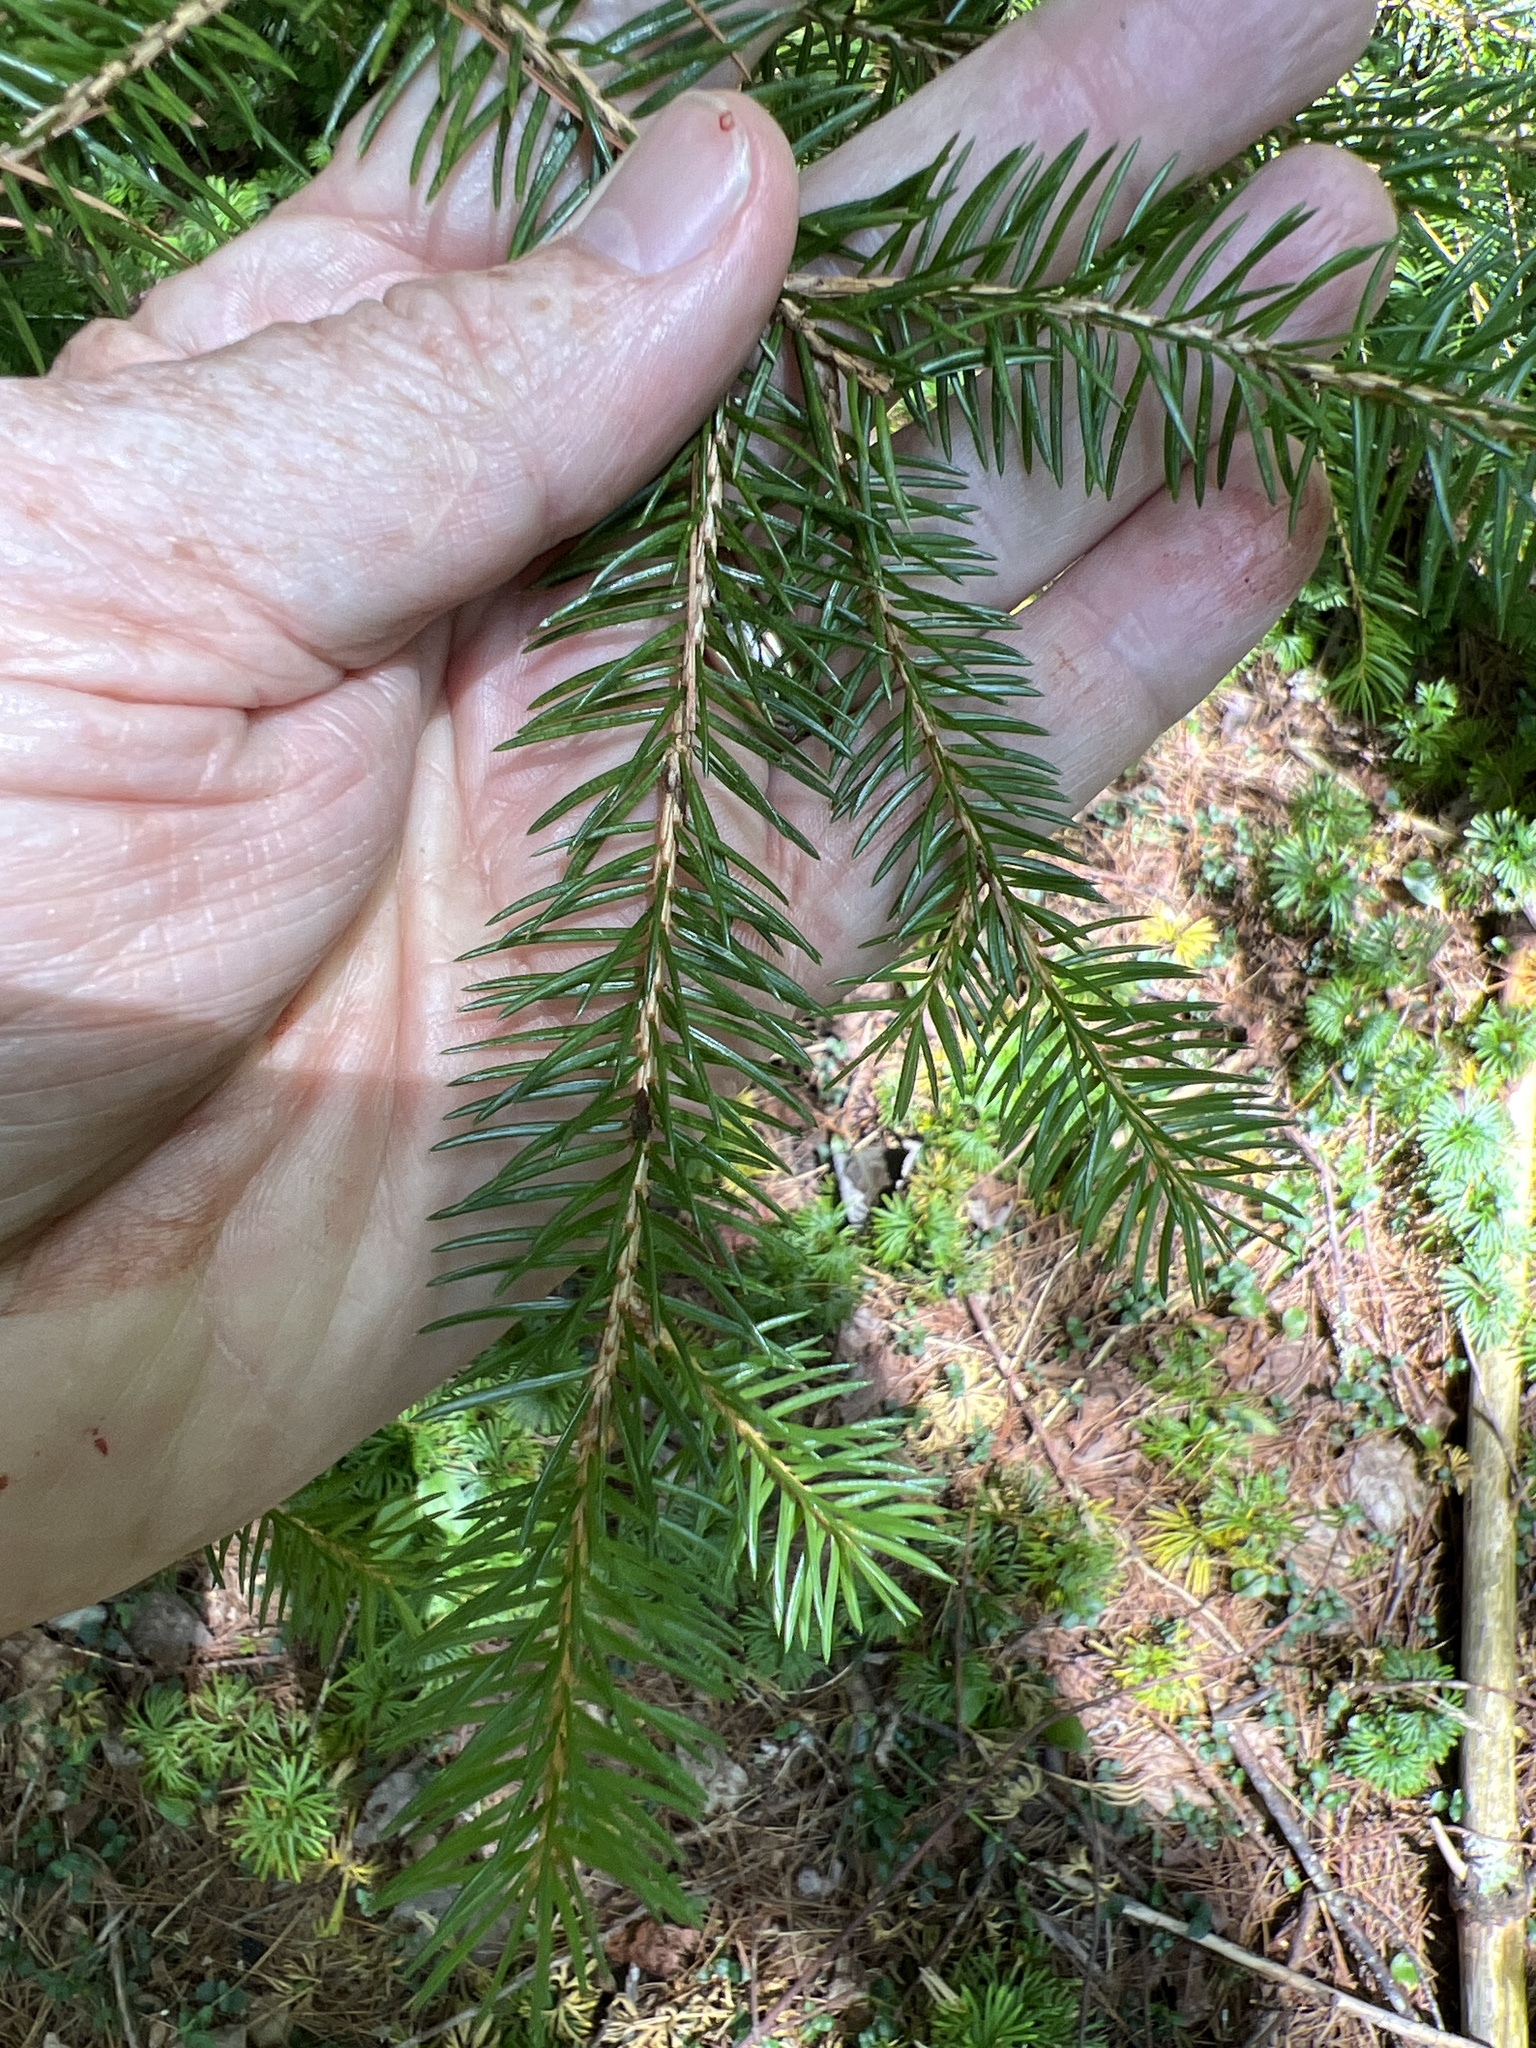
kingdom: Plantae
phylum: Tracheophyta
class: Pinopsida
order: Pinales
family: Pinaceae
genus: Picea
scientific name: Picea abies
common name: Norway spruce
